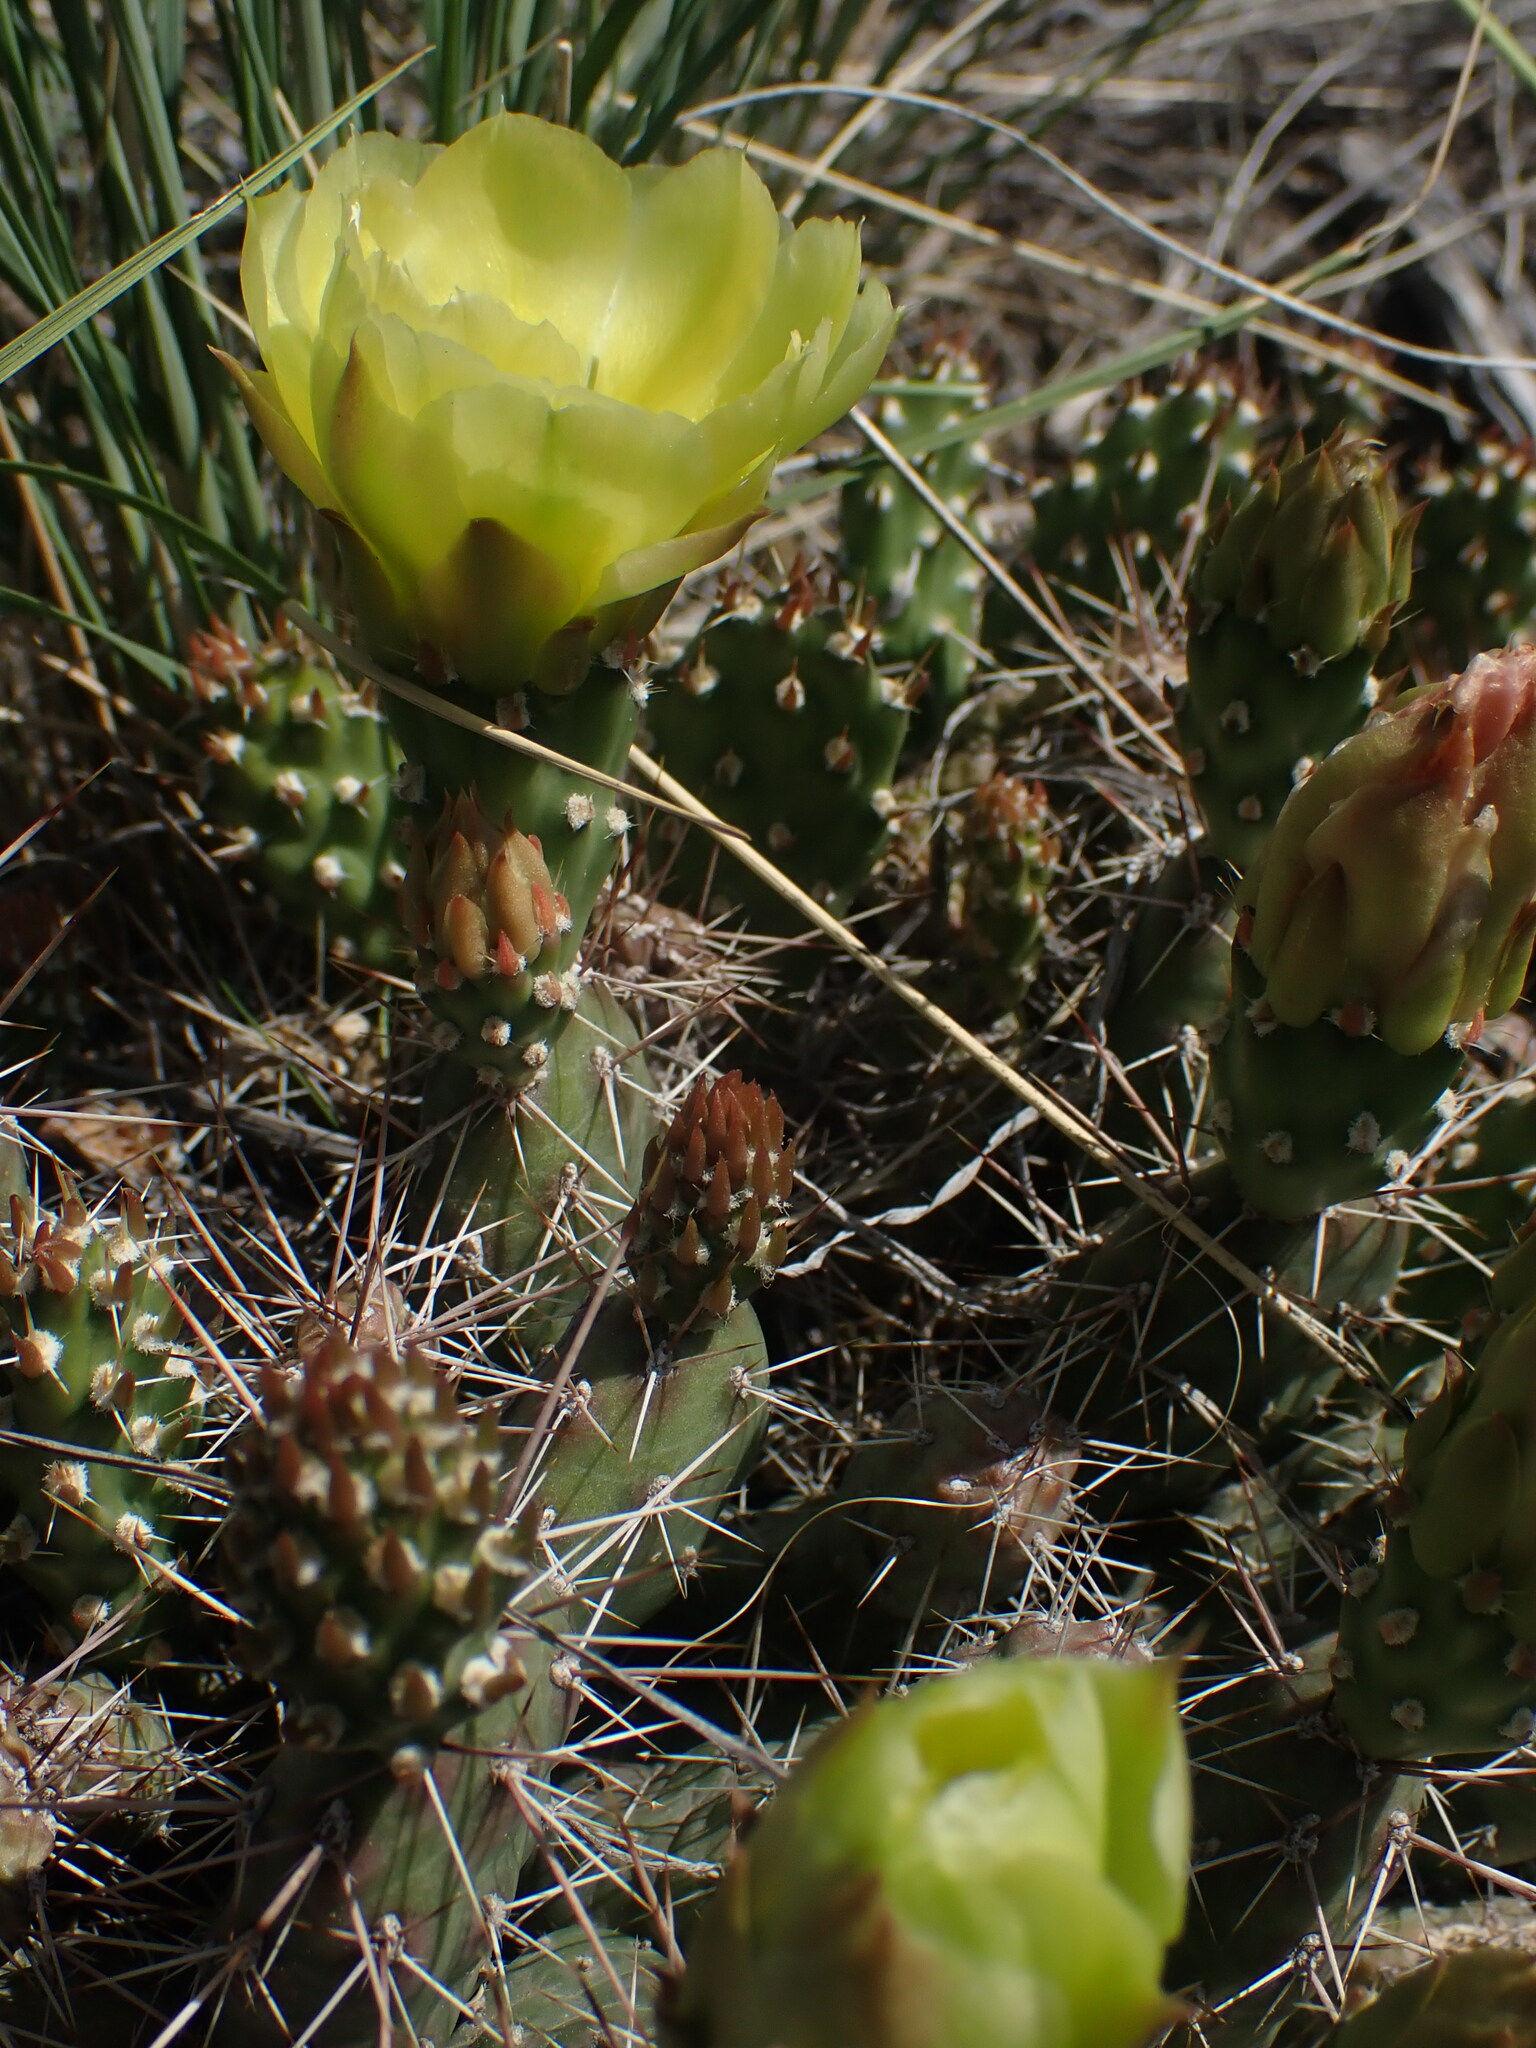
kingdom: Plantae
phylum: Tracheophyta
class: Magnoliopsida
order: Caryophyllales
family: Cactaceae
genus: Opuntia
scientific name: Opuntia fragilis
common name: Brittle cactus
